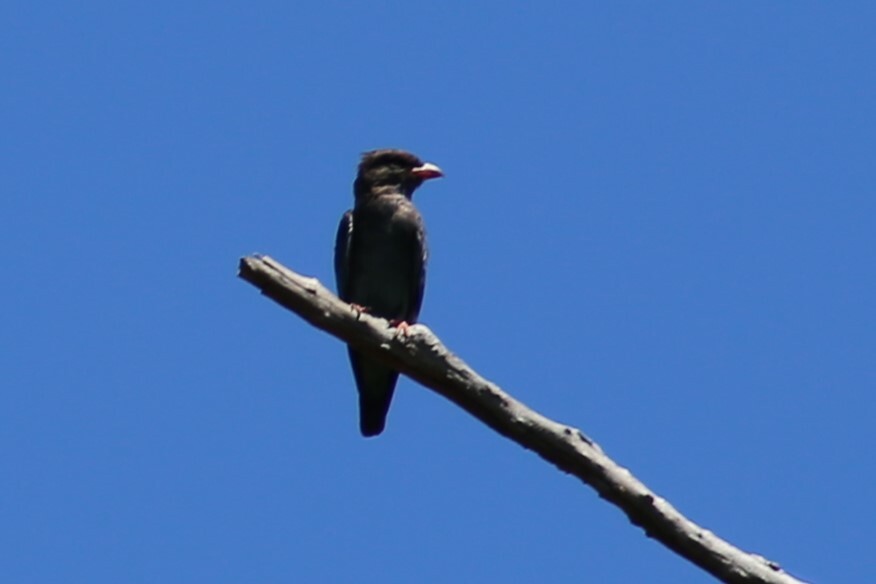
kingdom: Animalia
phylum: Chordata
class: Aves
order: Coraciiformes
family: Coraciidae
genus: Eurystomus
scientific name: Eurystomus orientalis
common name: Oriental dollarbird
